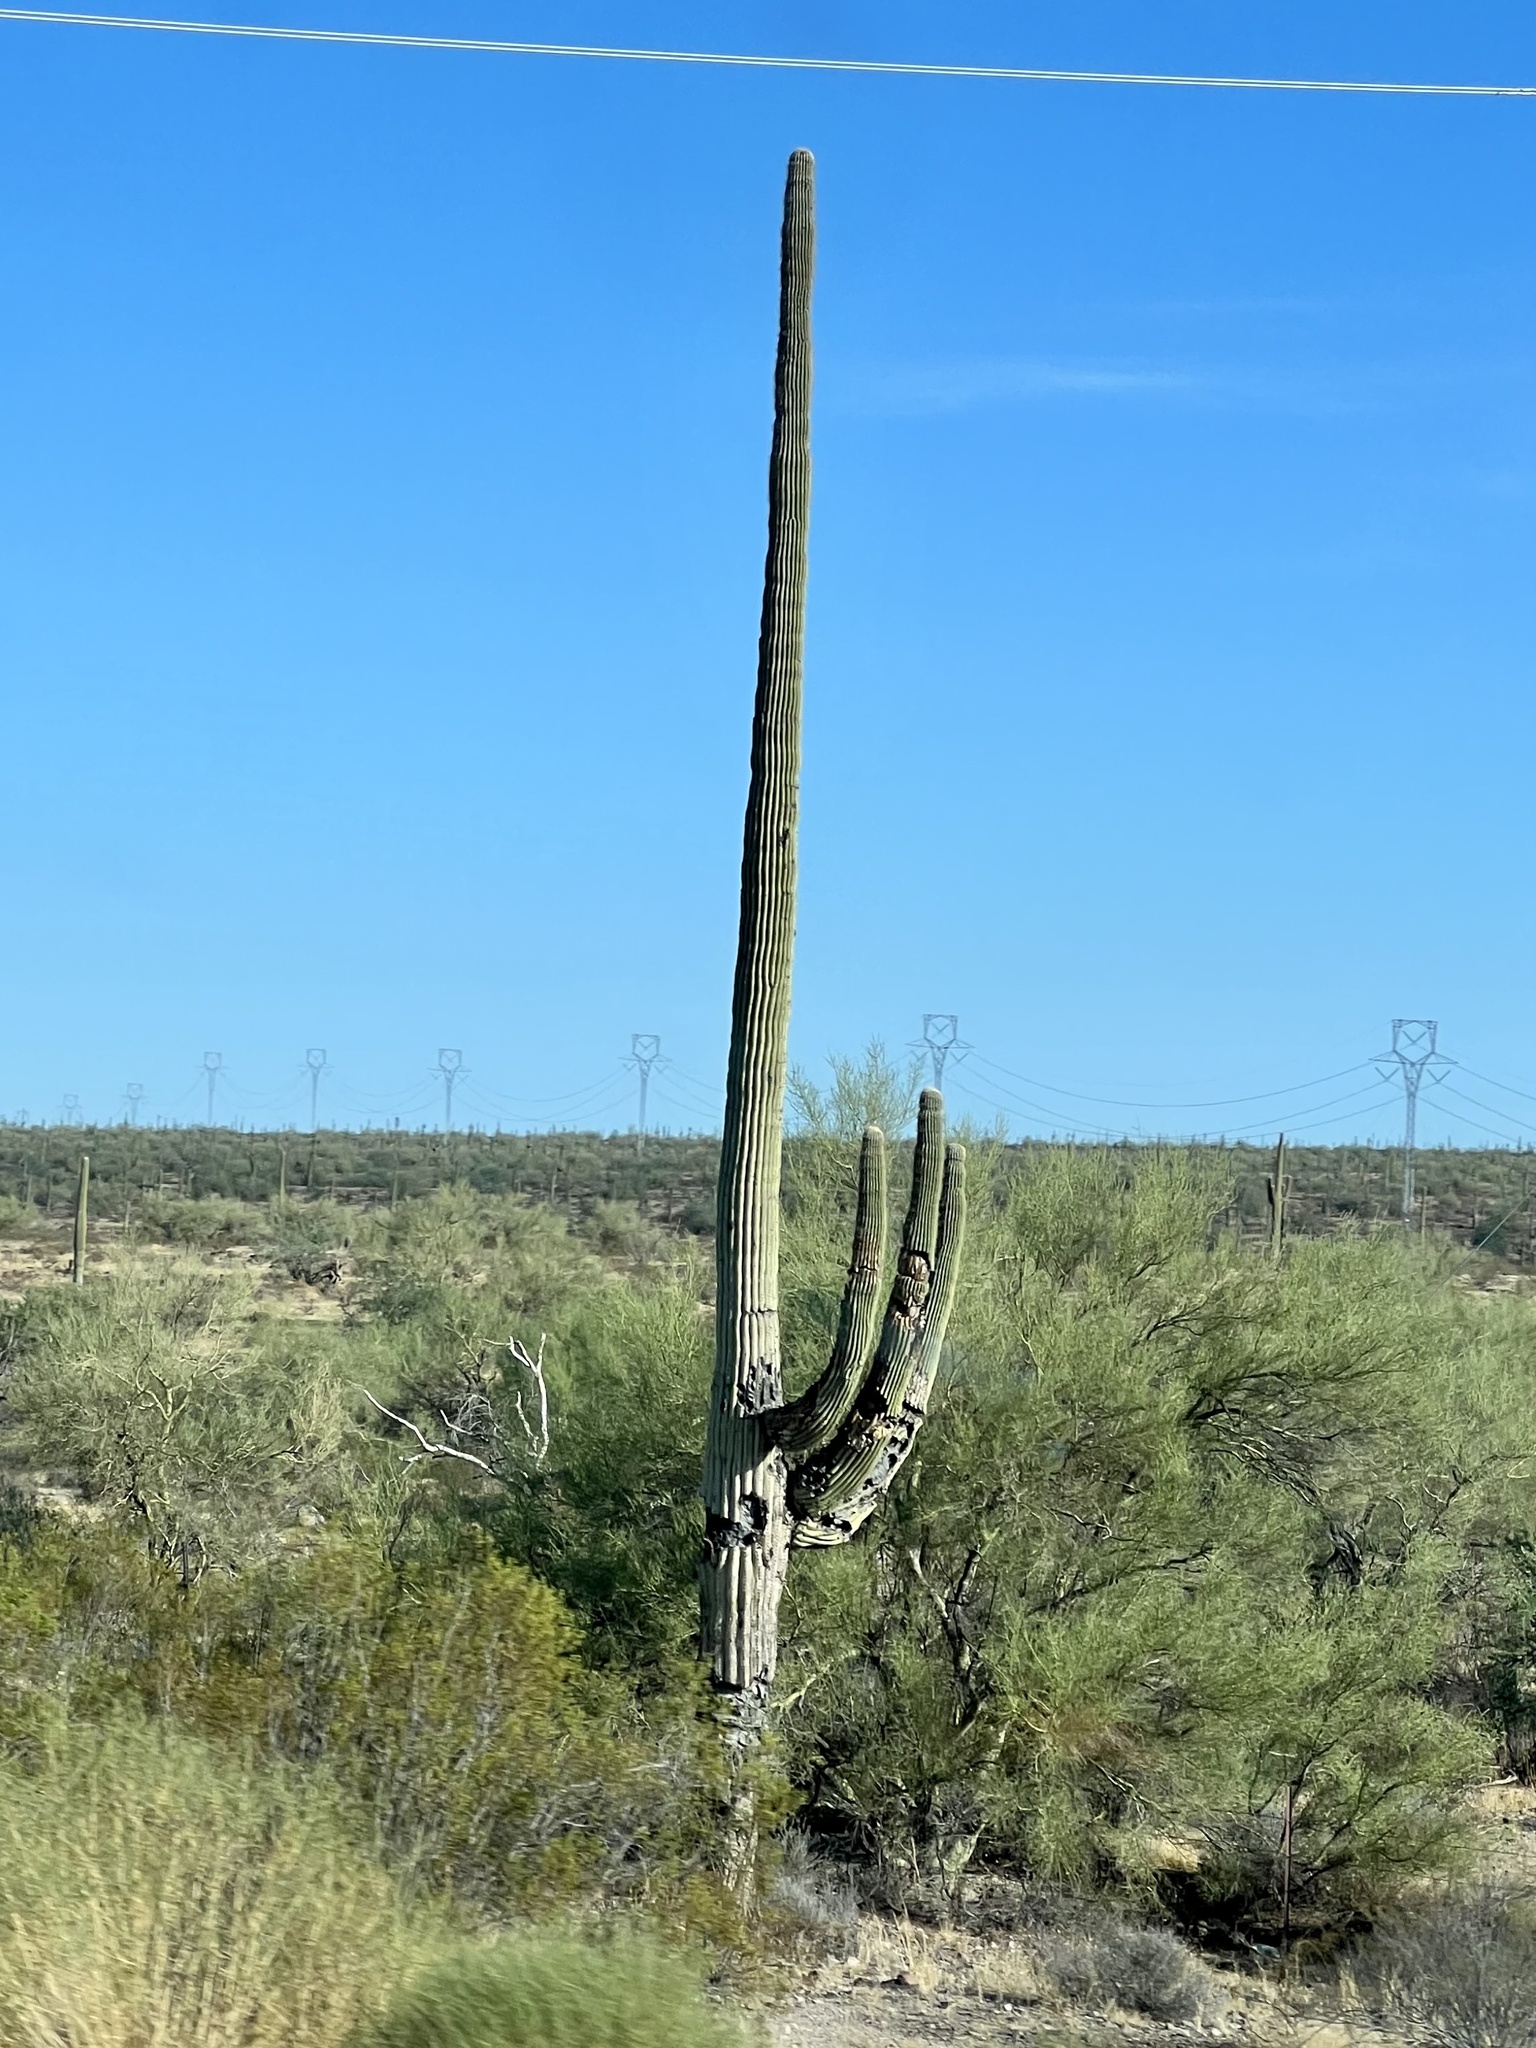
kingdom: Plantae
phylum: Tracheophyta
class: Magnoliopsida
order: Caryophyllales
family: Cactaceae
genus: Carnegiea
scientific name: Carnegiea gigantea
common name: Saguaro
